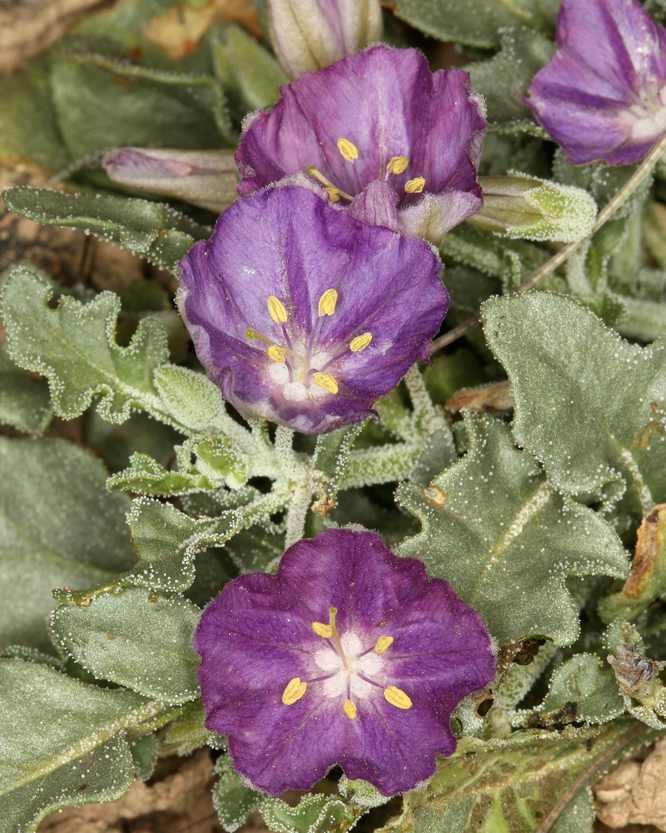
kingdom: Plantae
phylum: Tracheophyta
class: Magnoliopsida
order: Solanales
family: Solanaceae
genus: Quincula
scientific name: Quincula lobata
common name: Purple-ground-cherry
